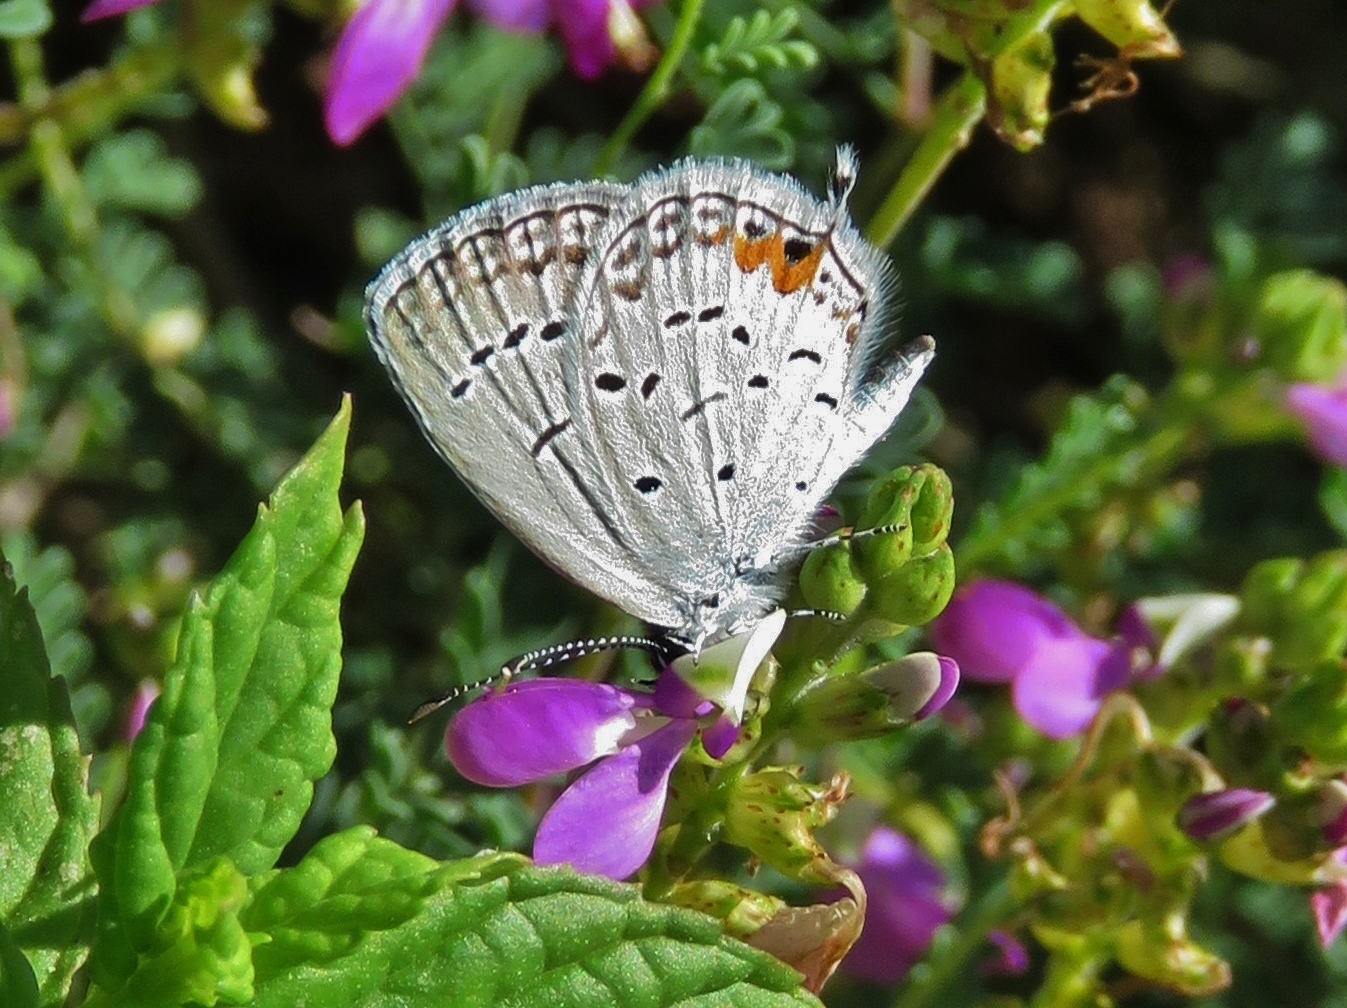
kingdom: Animalia
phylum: Arthropoda
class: Insecta
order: Lepidoptera
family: Lycaenidae
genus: Elkalyce
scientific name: Elkalyce comyntas
